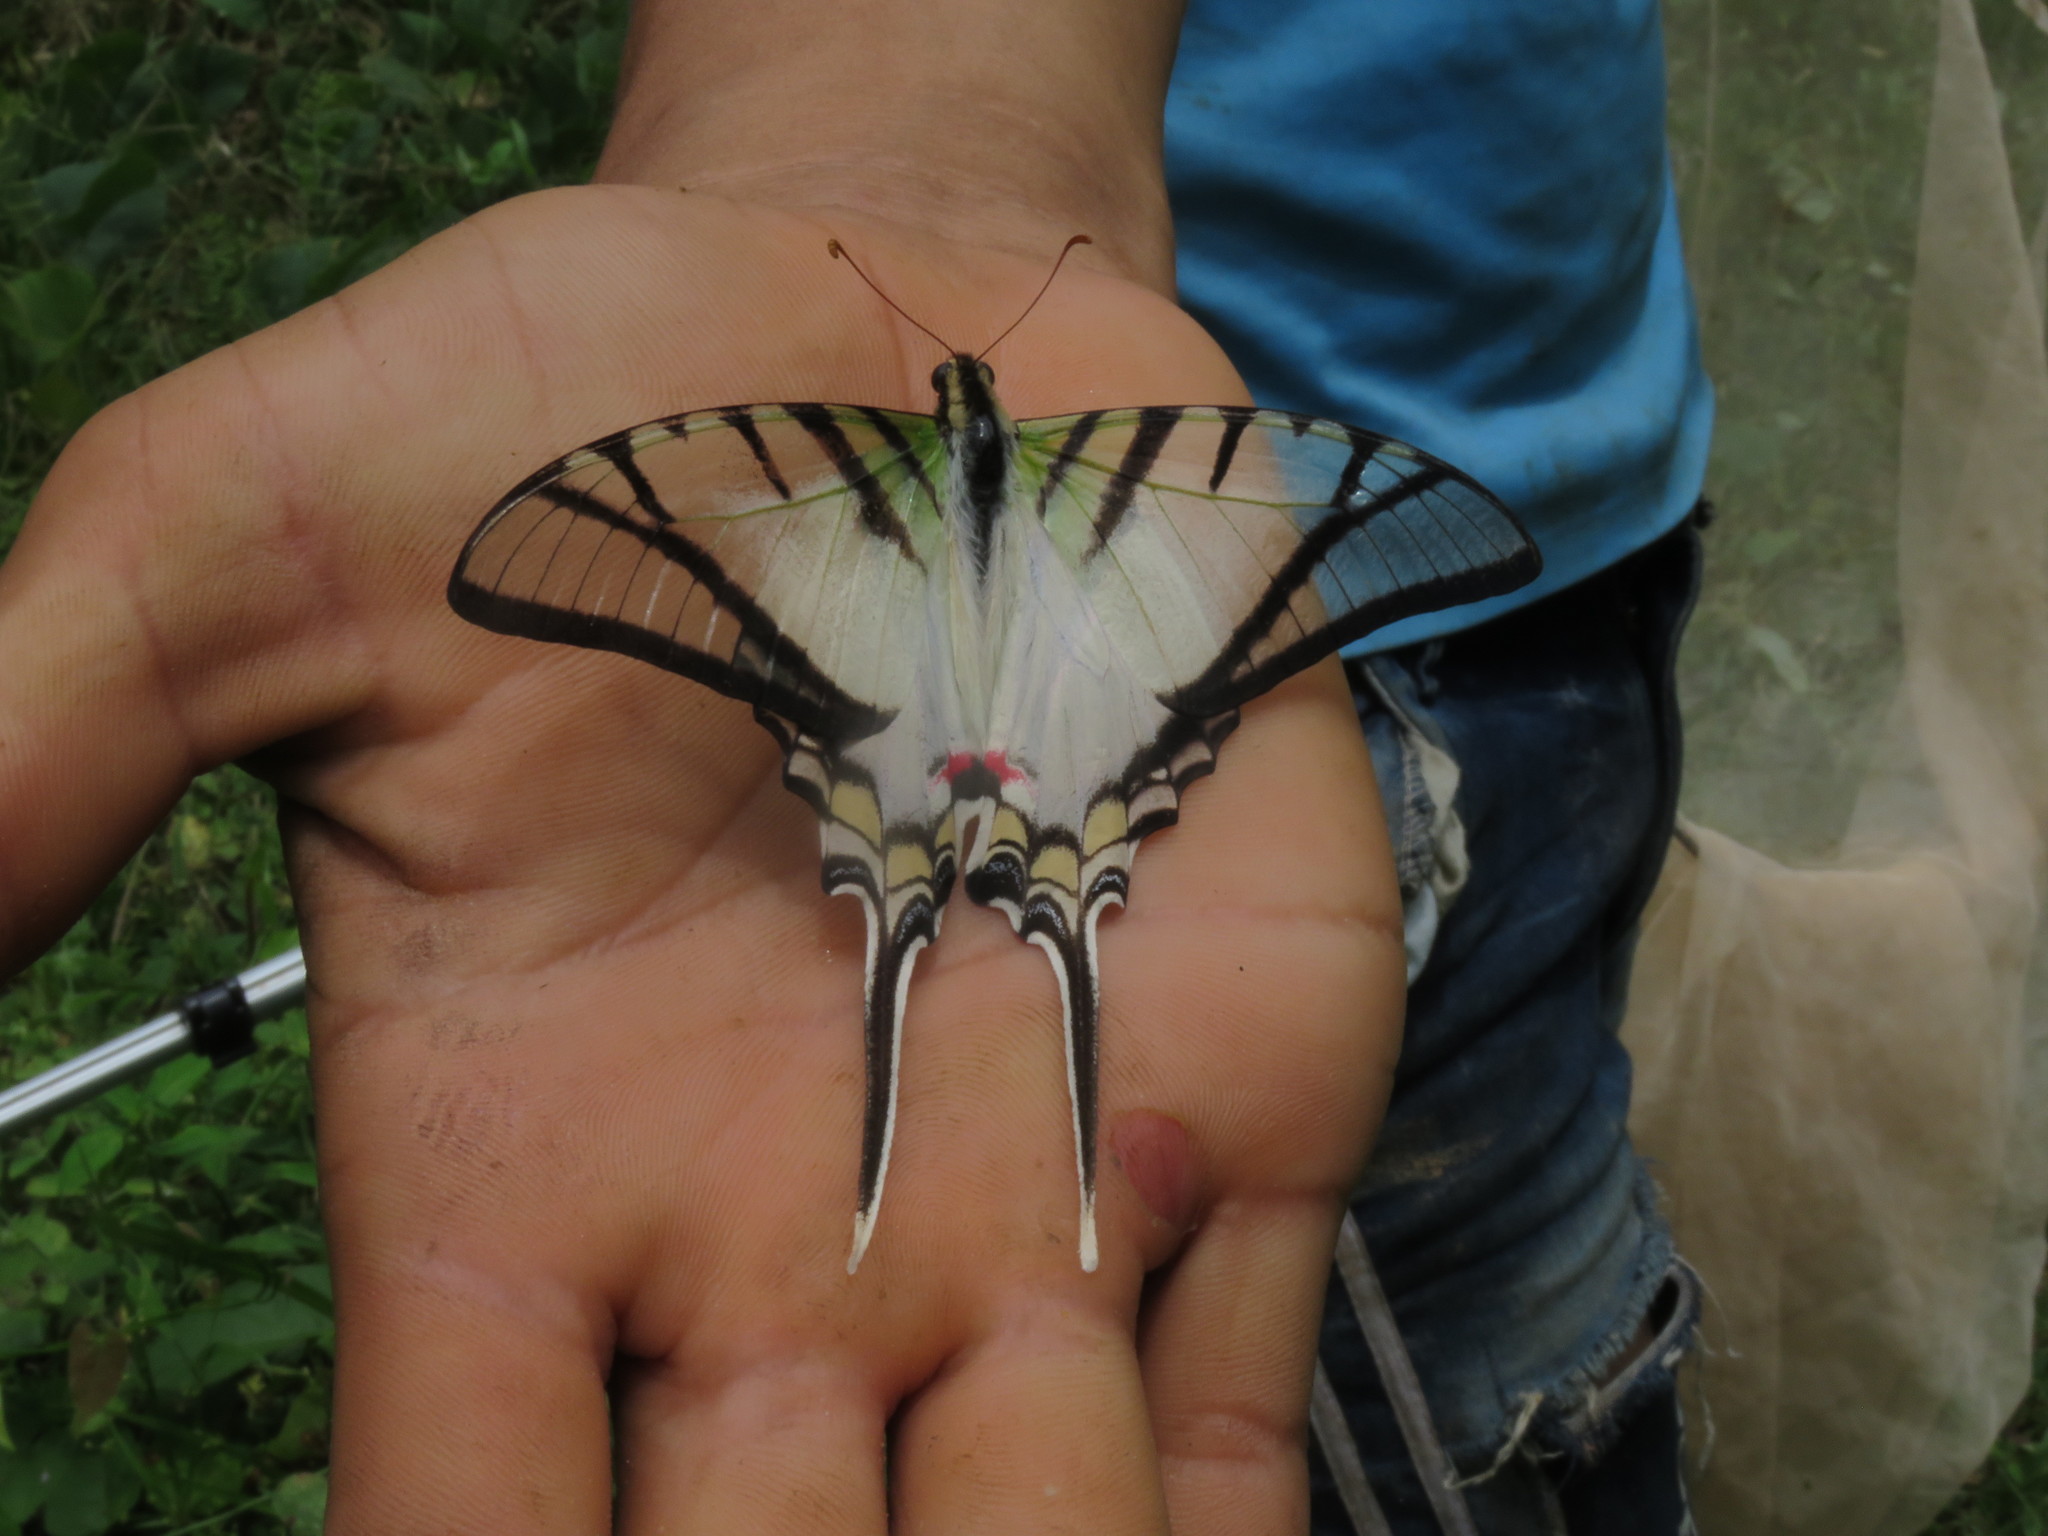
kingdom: Animalia
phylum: Arthropoda
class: Insecta
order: Lepidoptera
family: Papilionidae
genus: Protesilaus
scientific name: Protesilaus telesilaus
